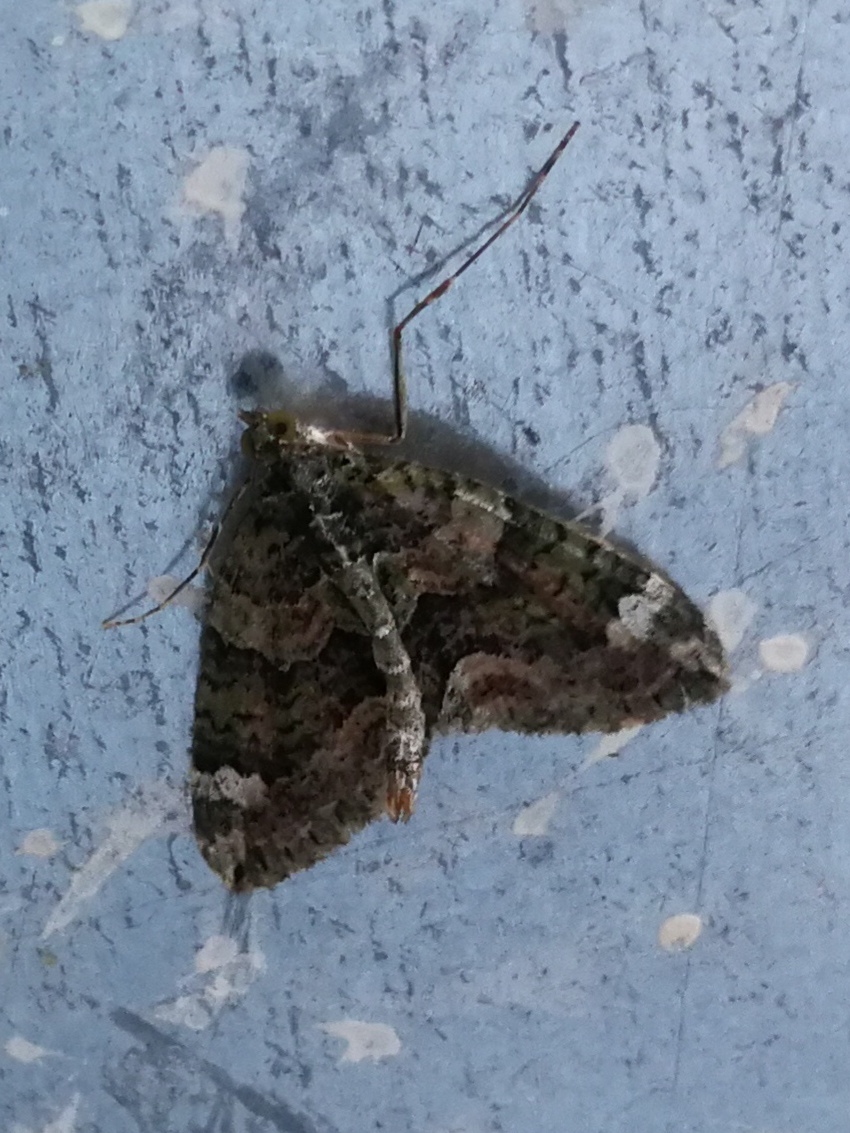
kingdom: Animalia
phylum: Arthropoda
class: Insecta
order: Lepidoptera
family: Geometridae
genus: Chloroclysta
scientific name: Chloroclysta siterata
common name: Red-green carpet
